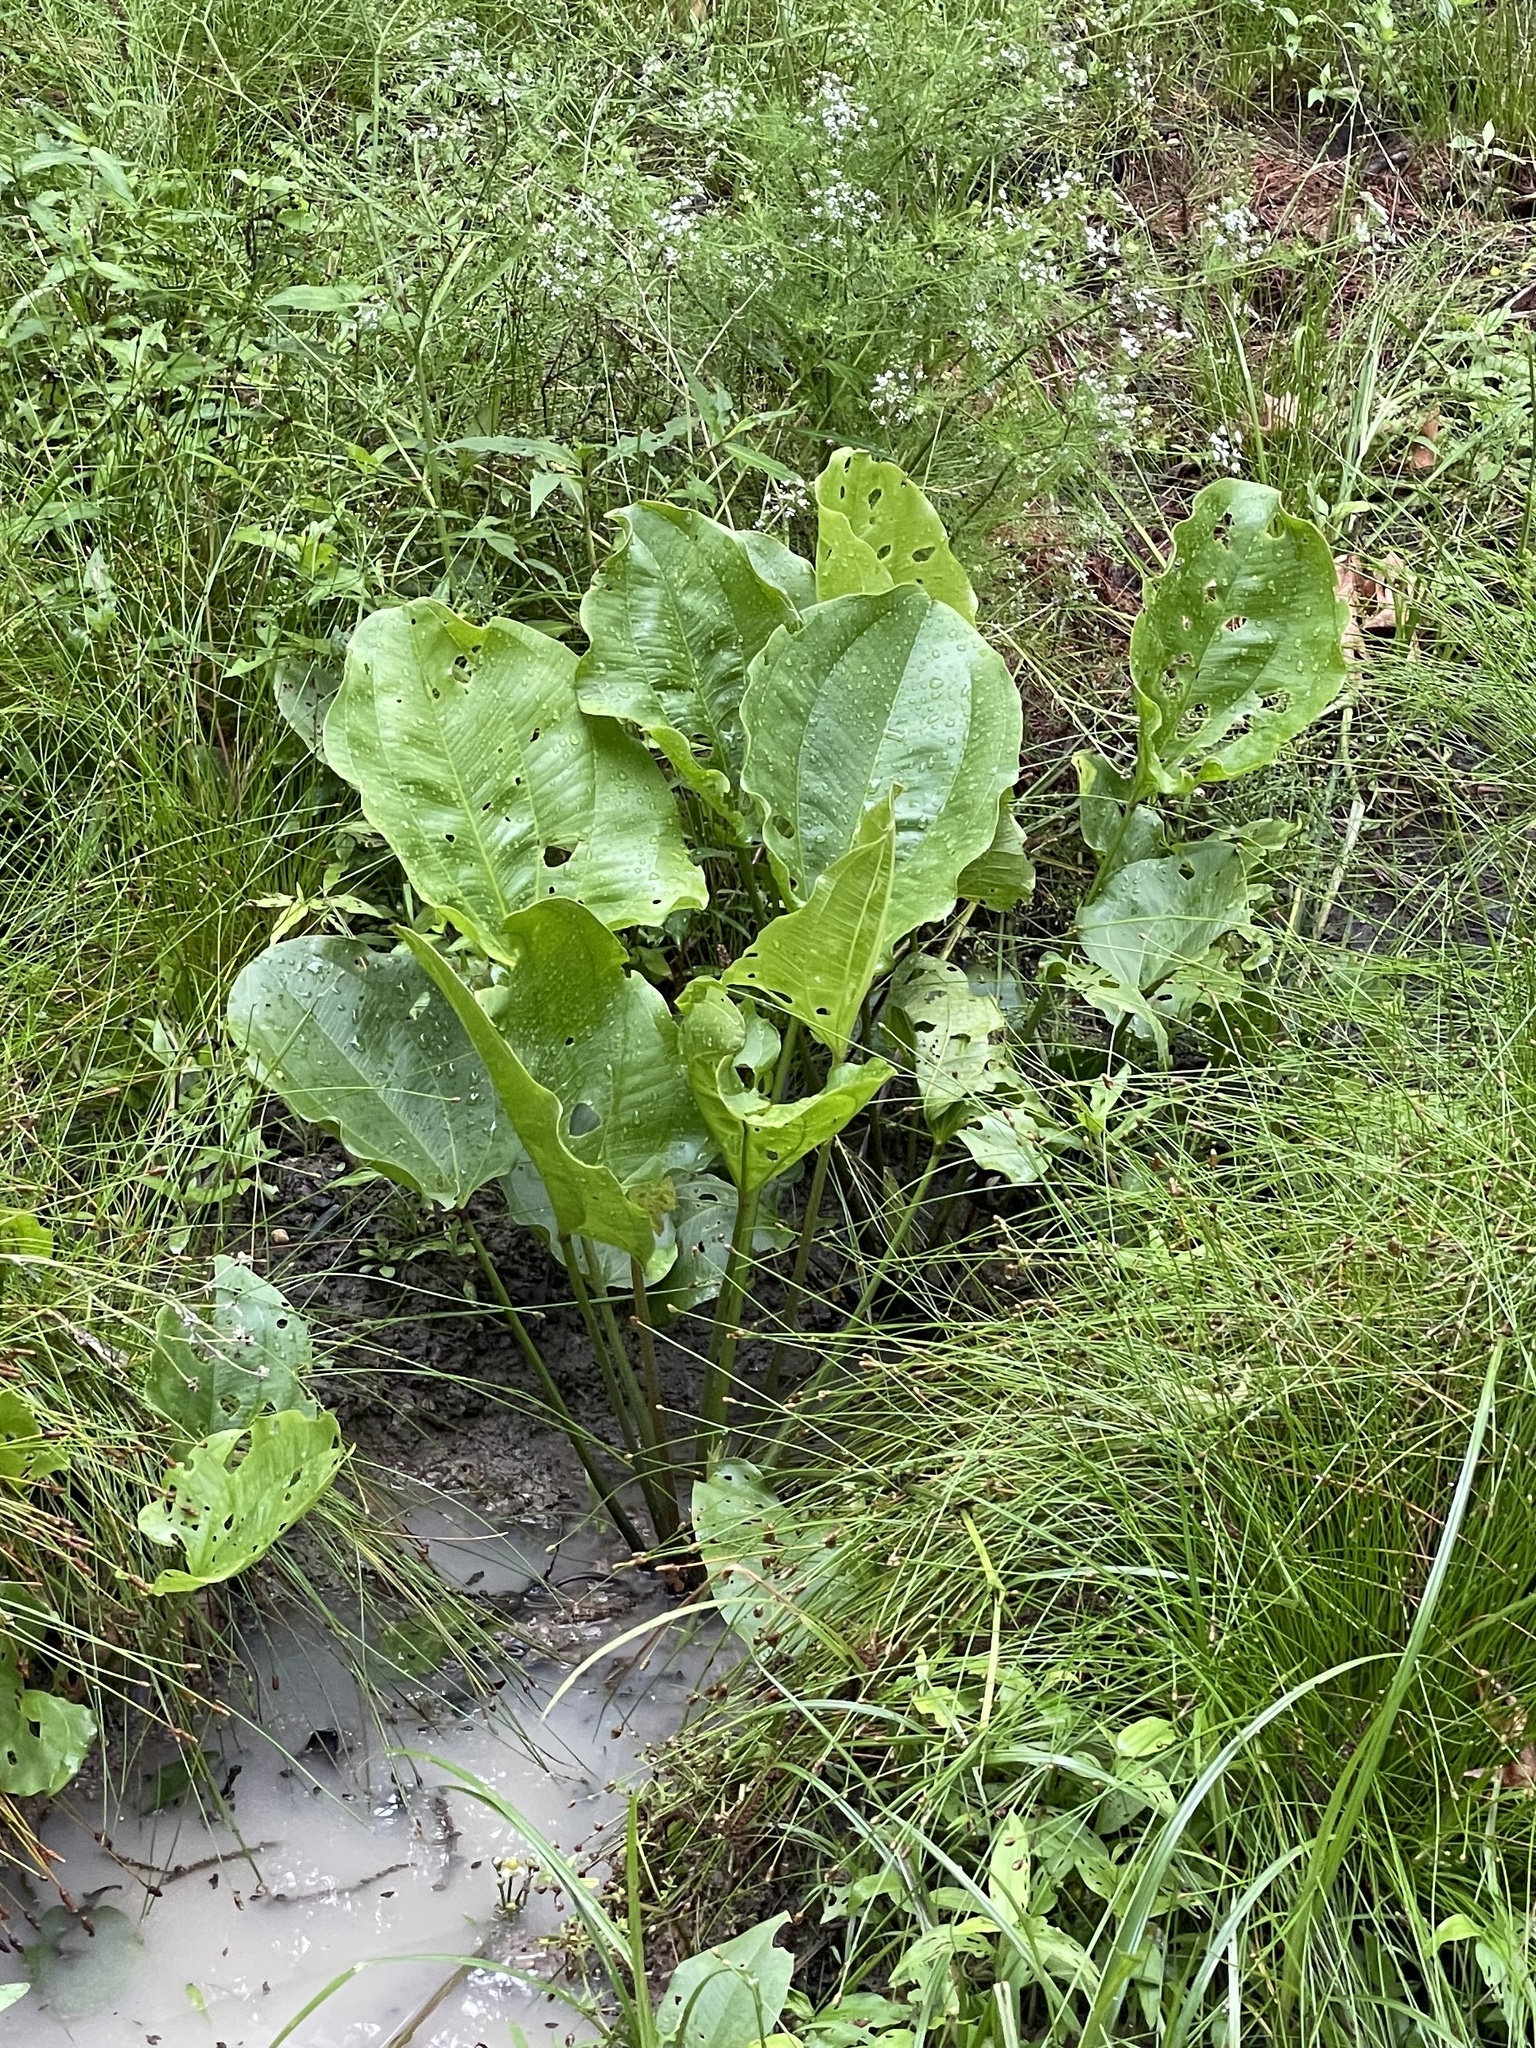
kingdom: Plantae
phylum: Tracheophyta
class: Liliopsida
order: Alismatales
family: Alismataceae
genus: Aquarius
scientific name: Aquarius cordifolius
